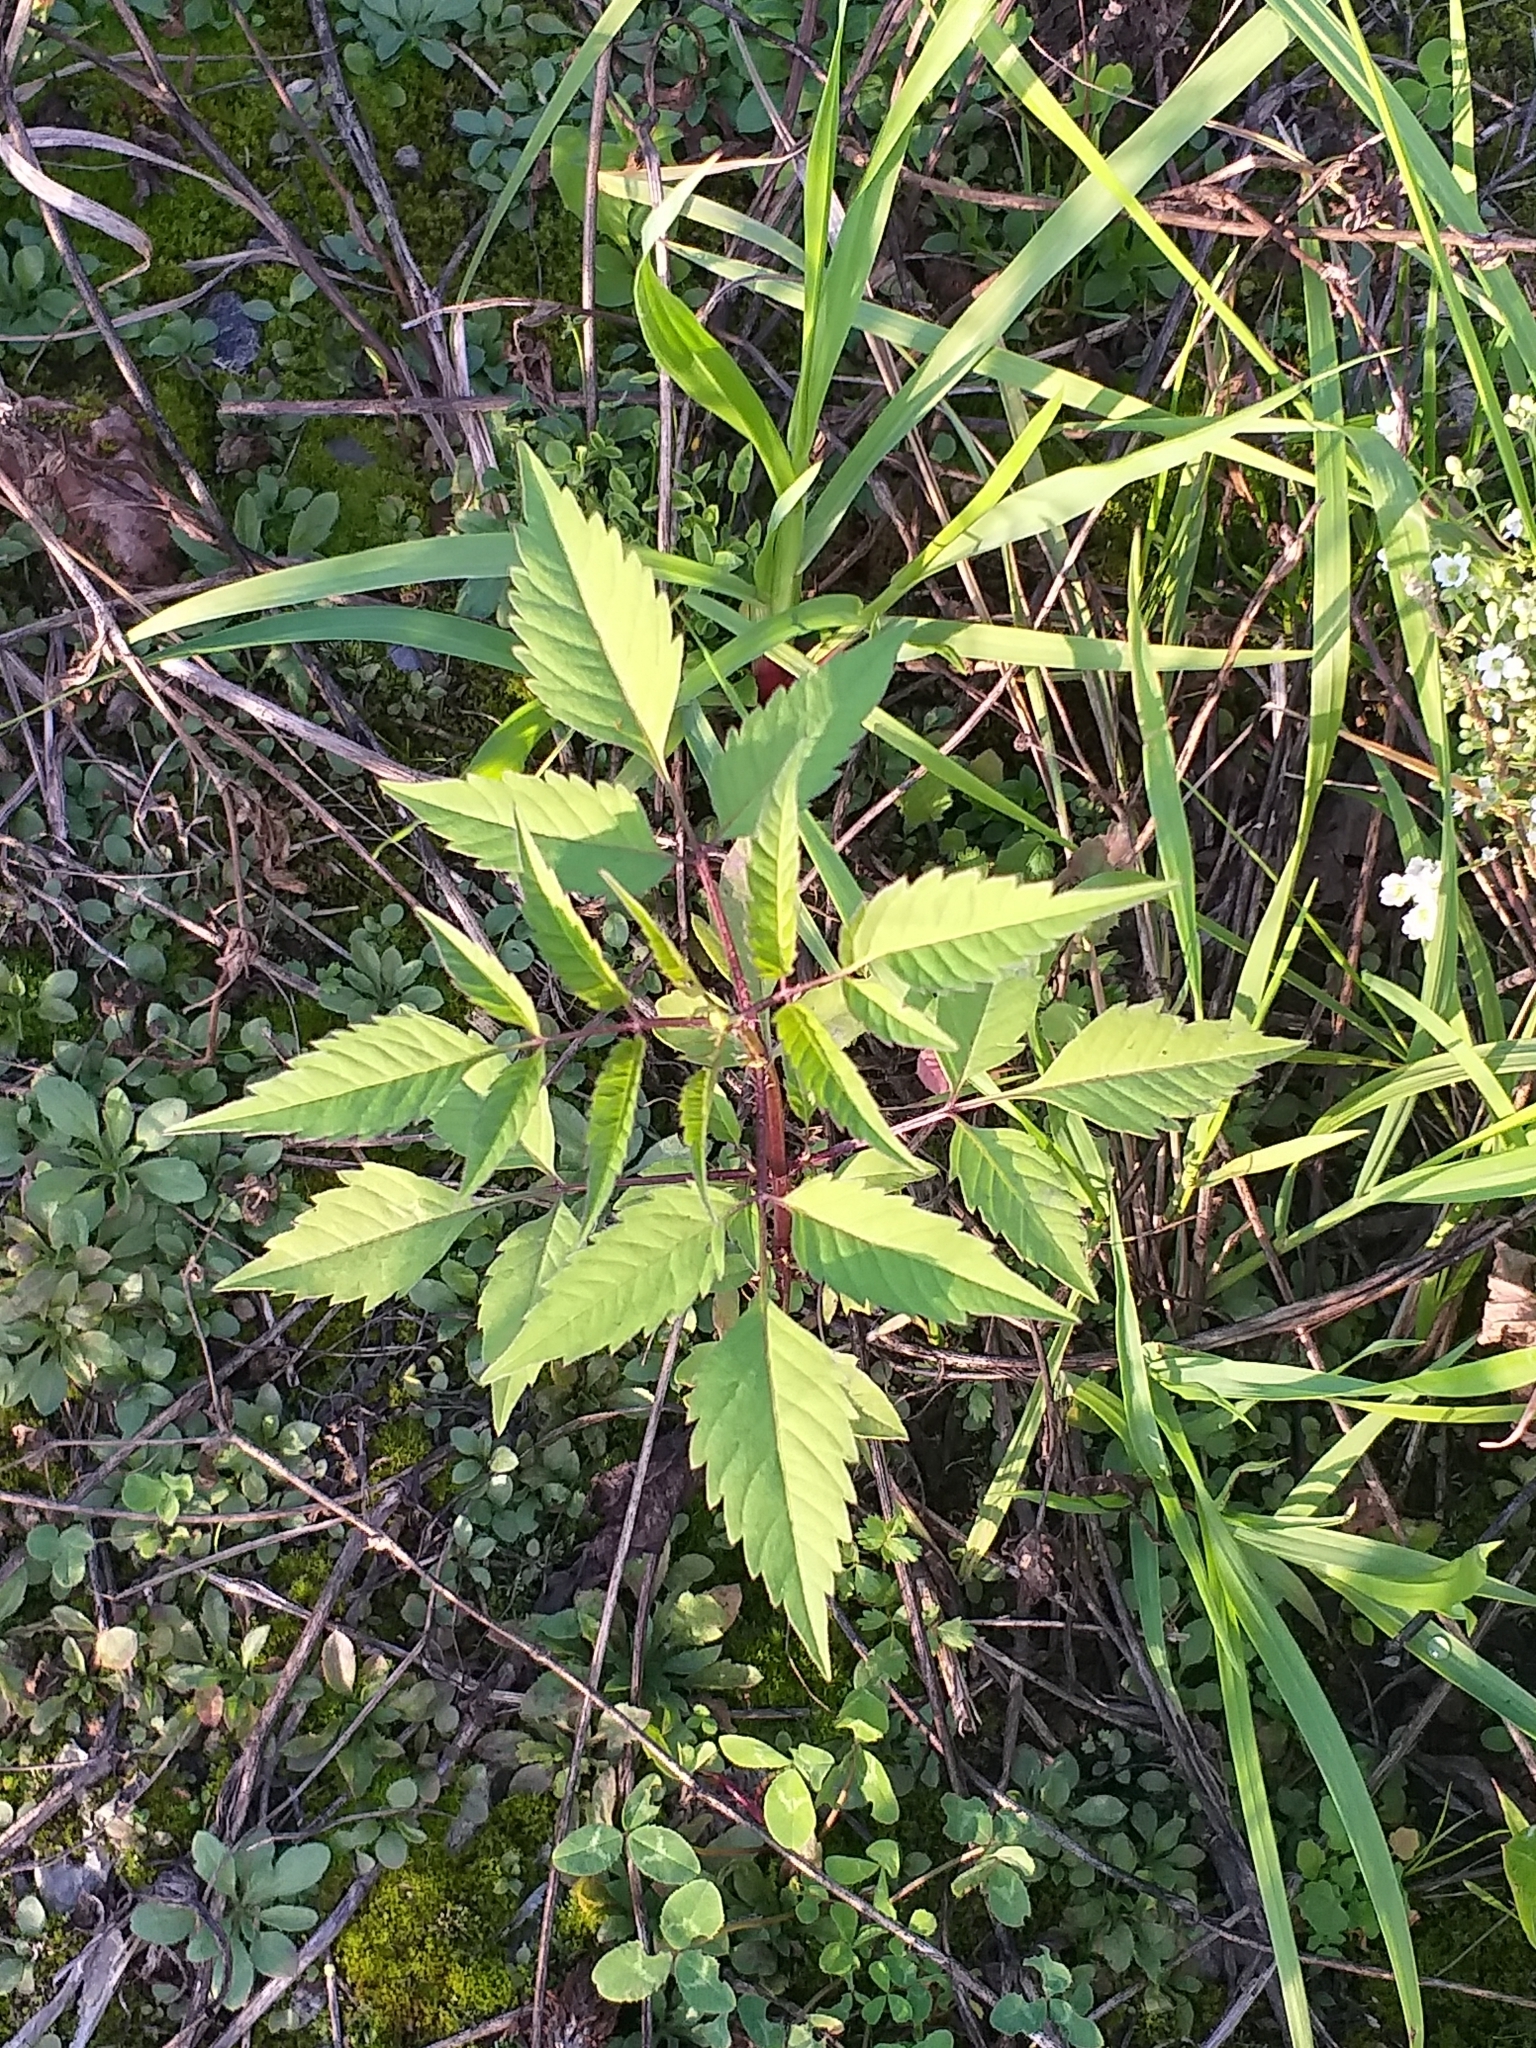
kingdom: Plantae
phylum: Tracheophyta
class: Magnoliopsida
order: Asterales
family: Asteraceae
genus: Bidens
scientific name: Bidens frondosa
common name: Beggarticks
